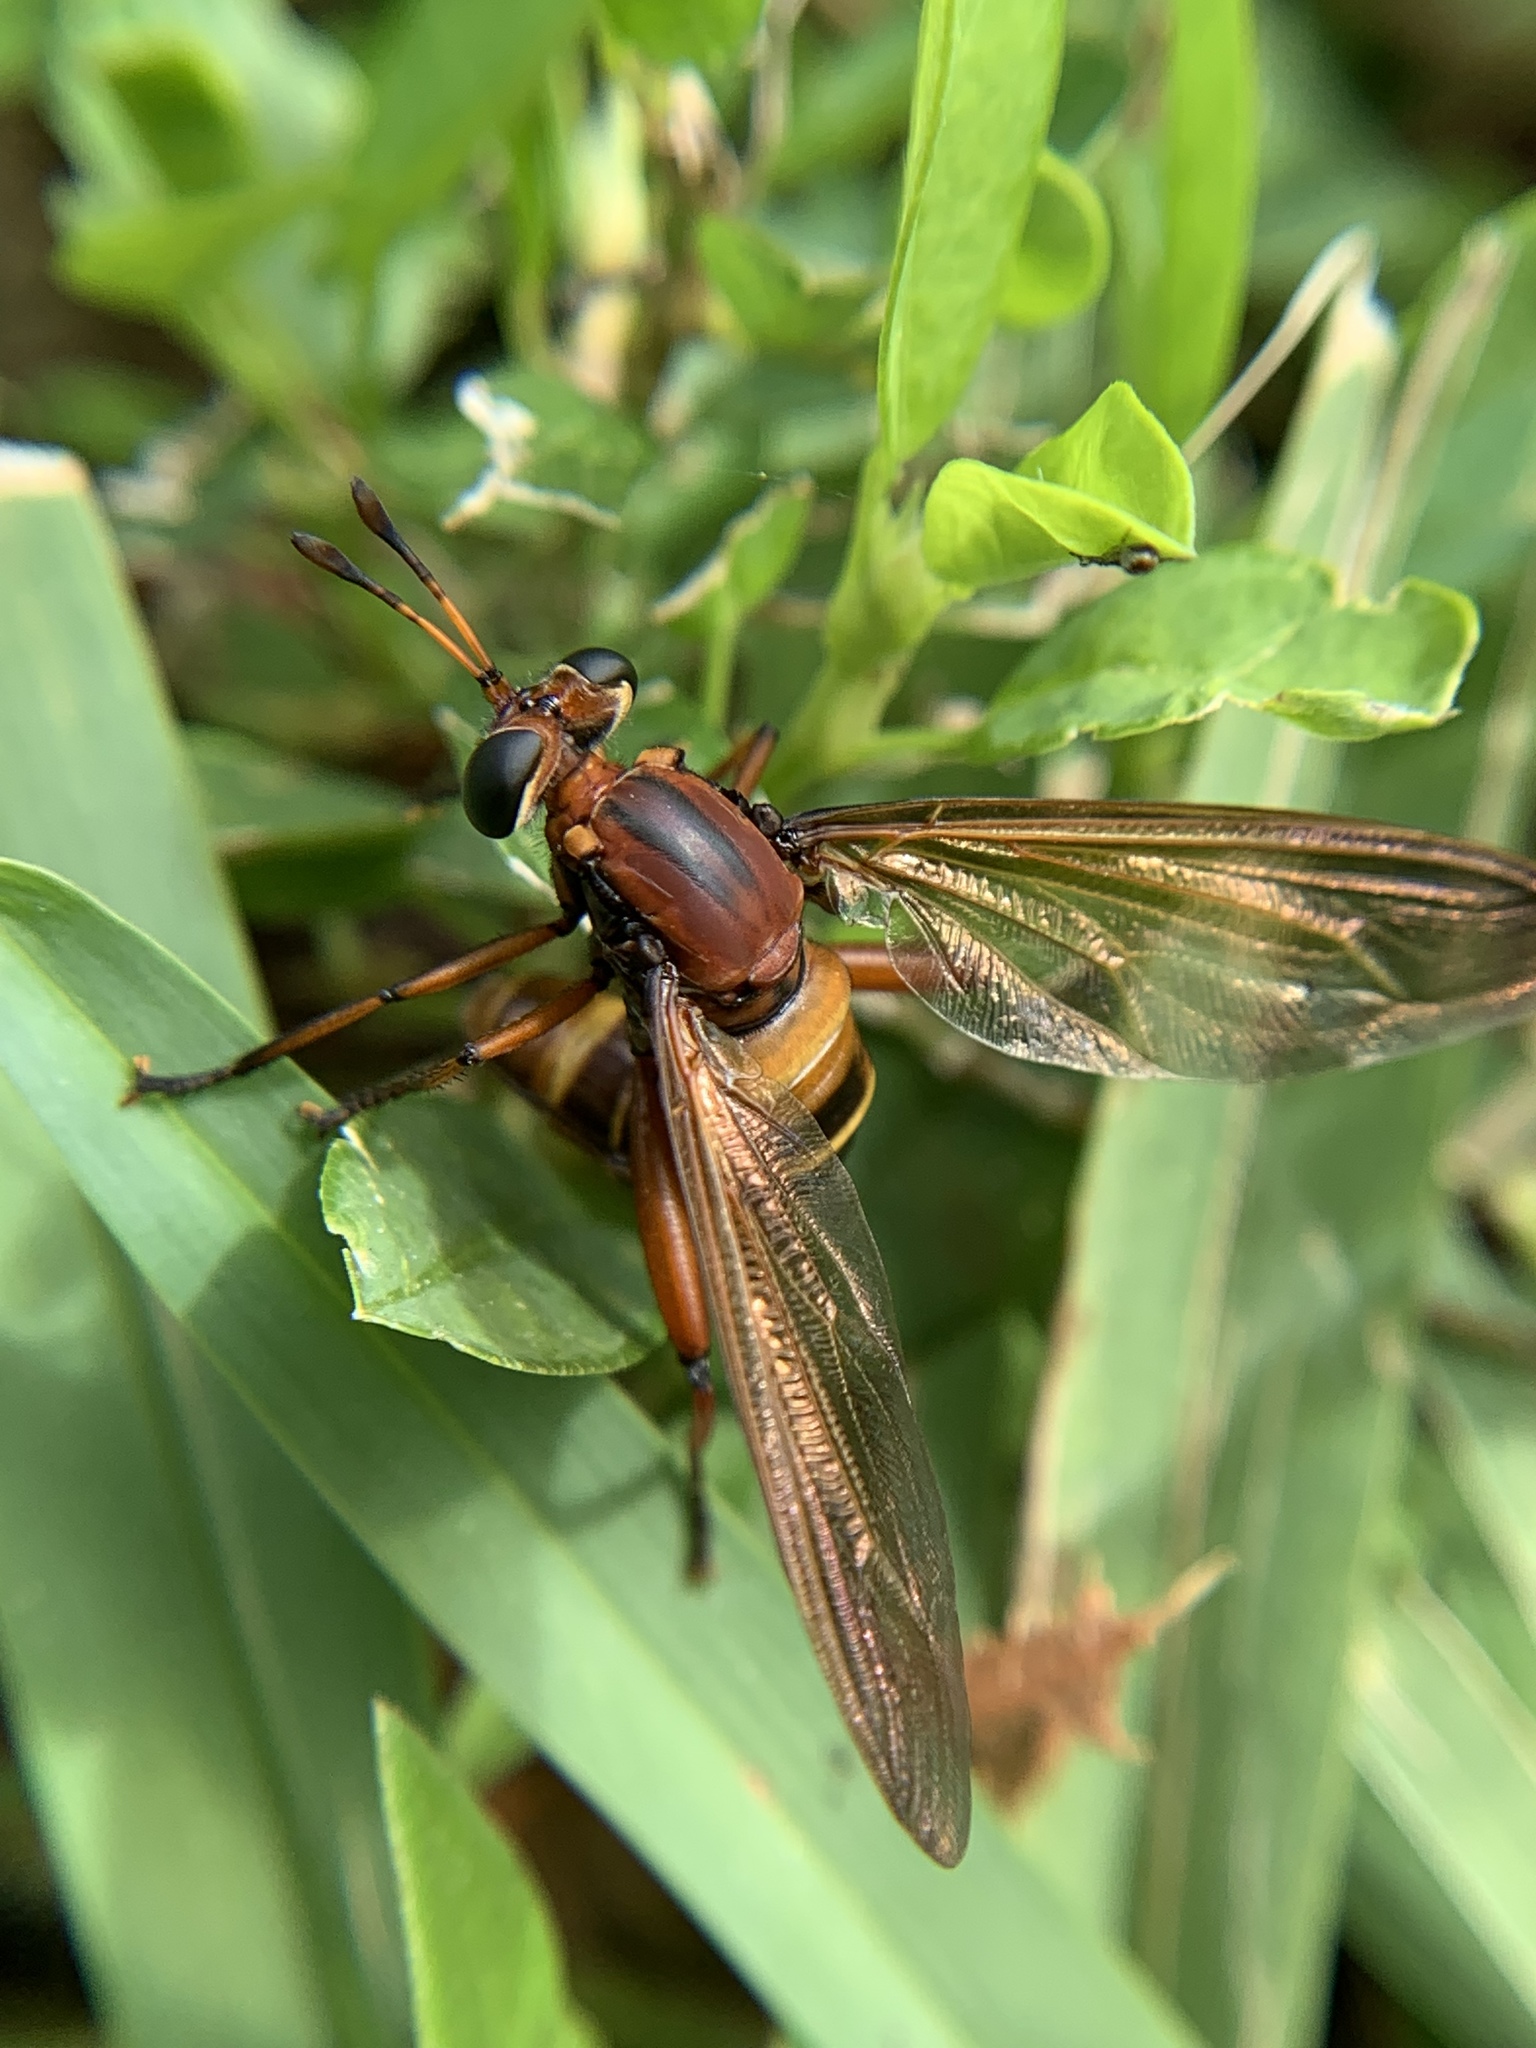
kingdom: Animalia
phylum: Arthropoda
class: Insecta
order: Diptera
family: Mydidae
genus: Mydas
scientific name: Mydas maculiventris
